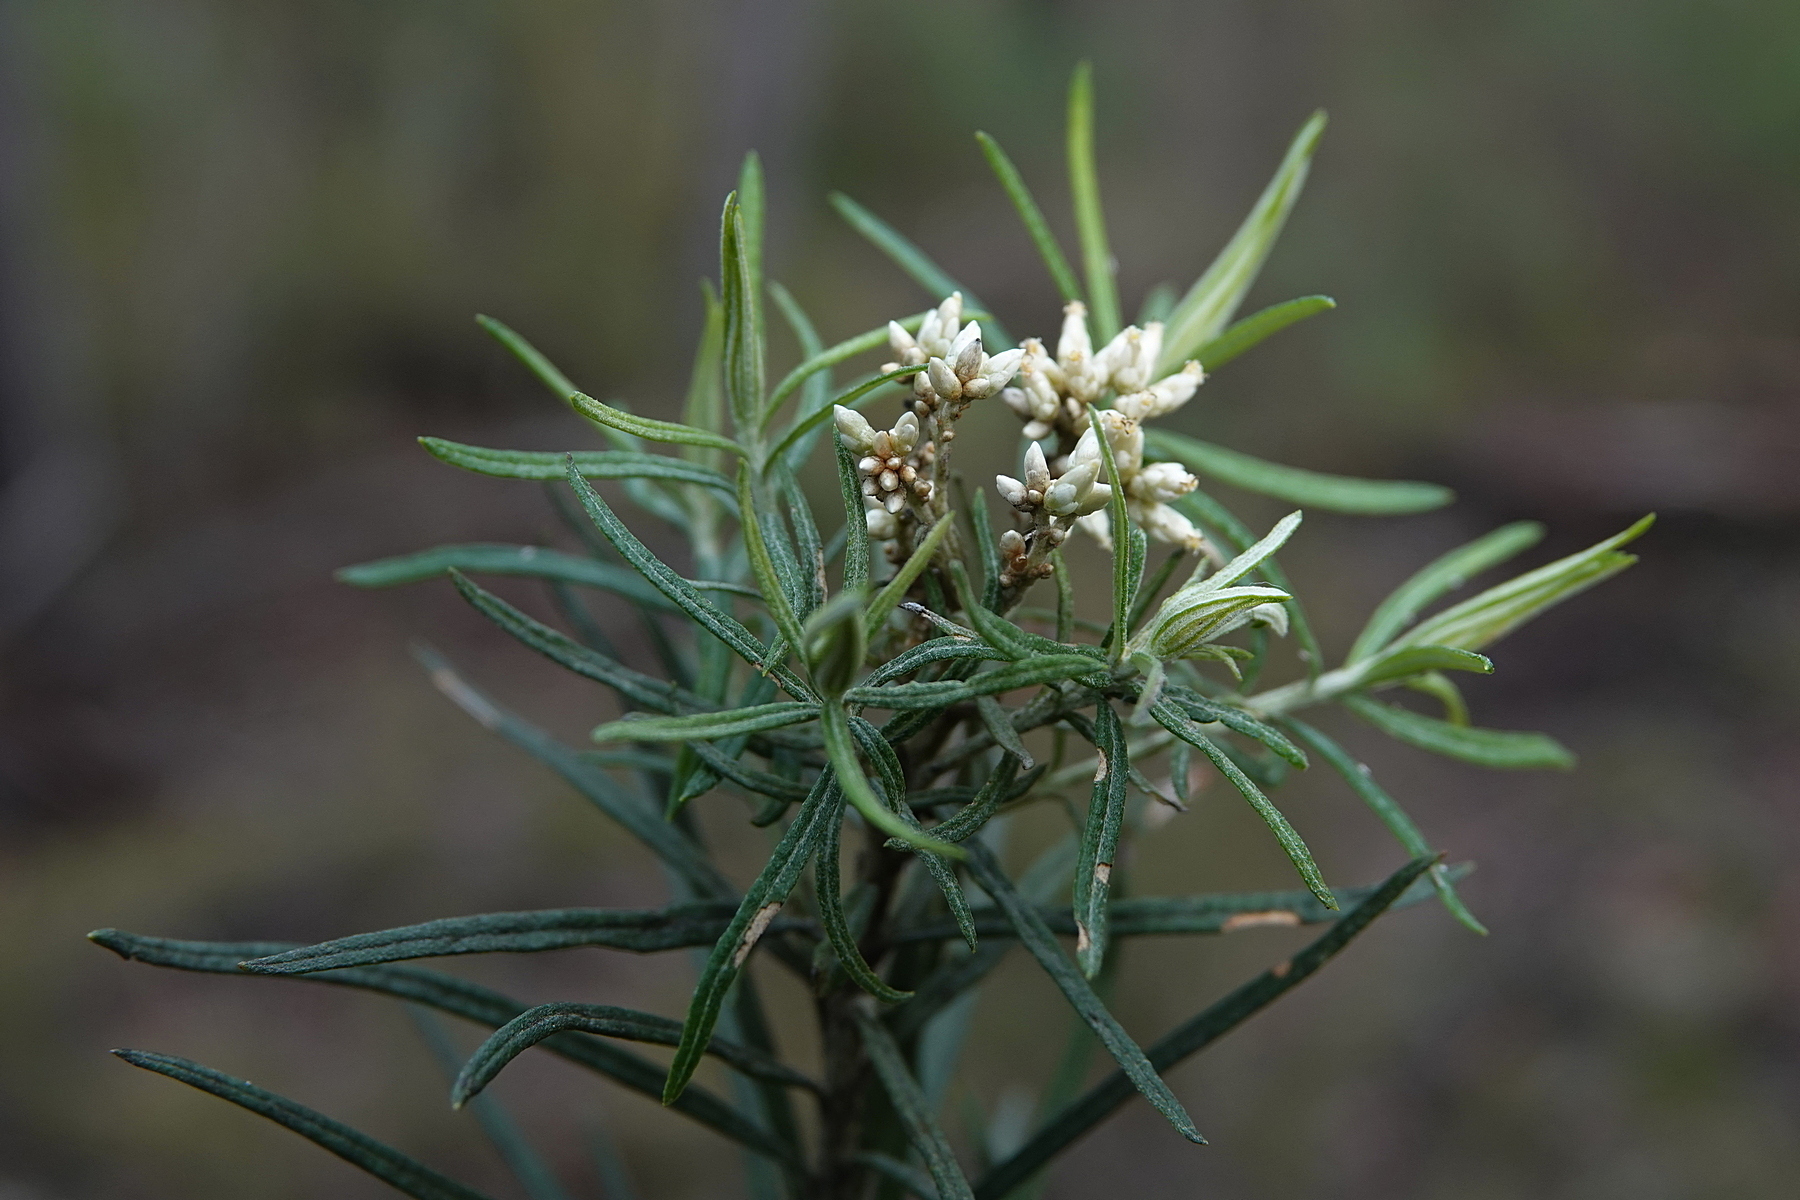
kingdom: Plantae
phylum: Tracheophyta
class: Magnoliopsida
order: Asterales
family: Asteraceae
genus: Ozothamnus
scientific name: Ozothamnus conditus
